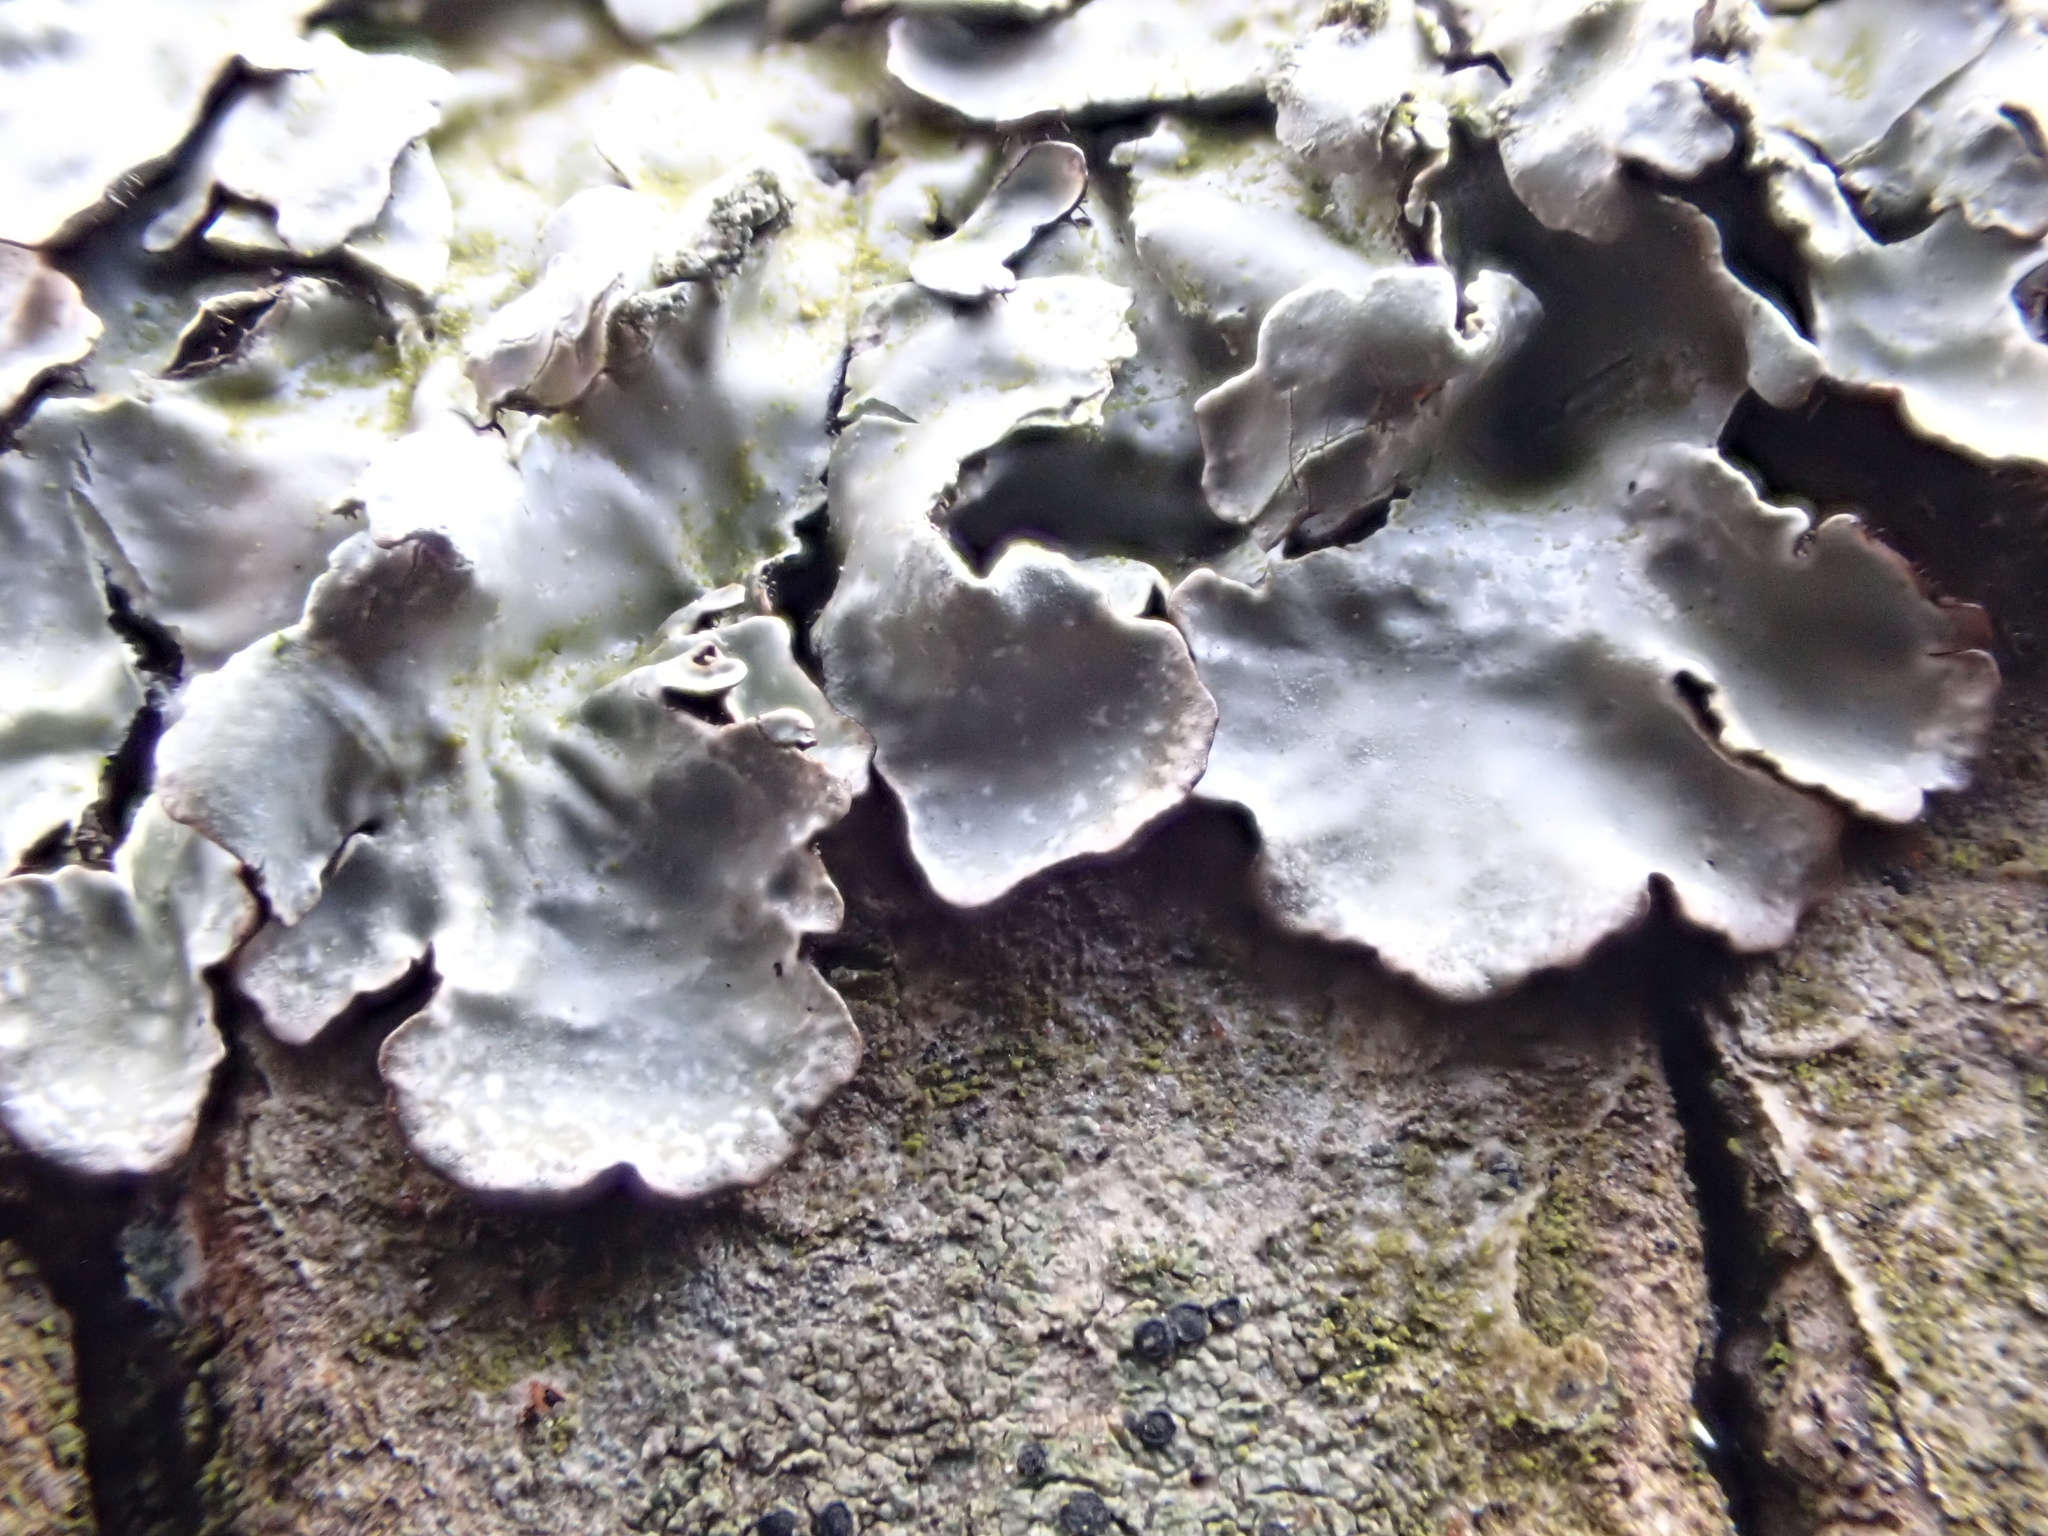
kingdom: Fungi
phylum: Ascomycota
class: Lecanoromycetes
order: Lecanorales
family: Parmeliaceae
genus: Parmelia
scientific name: Parmelia sulcata
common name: Netted shield lichen
